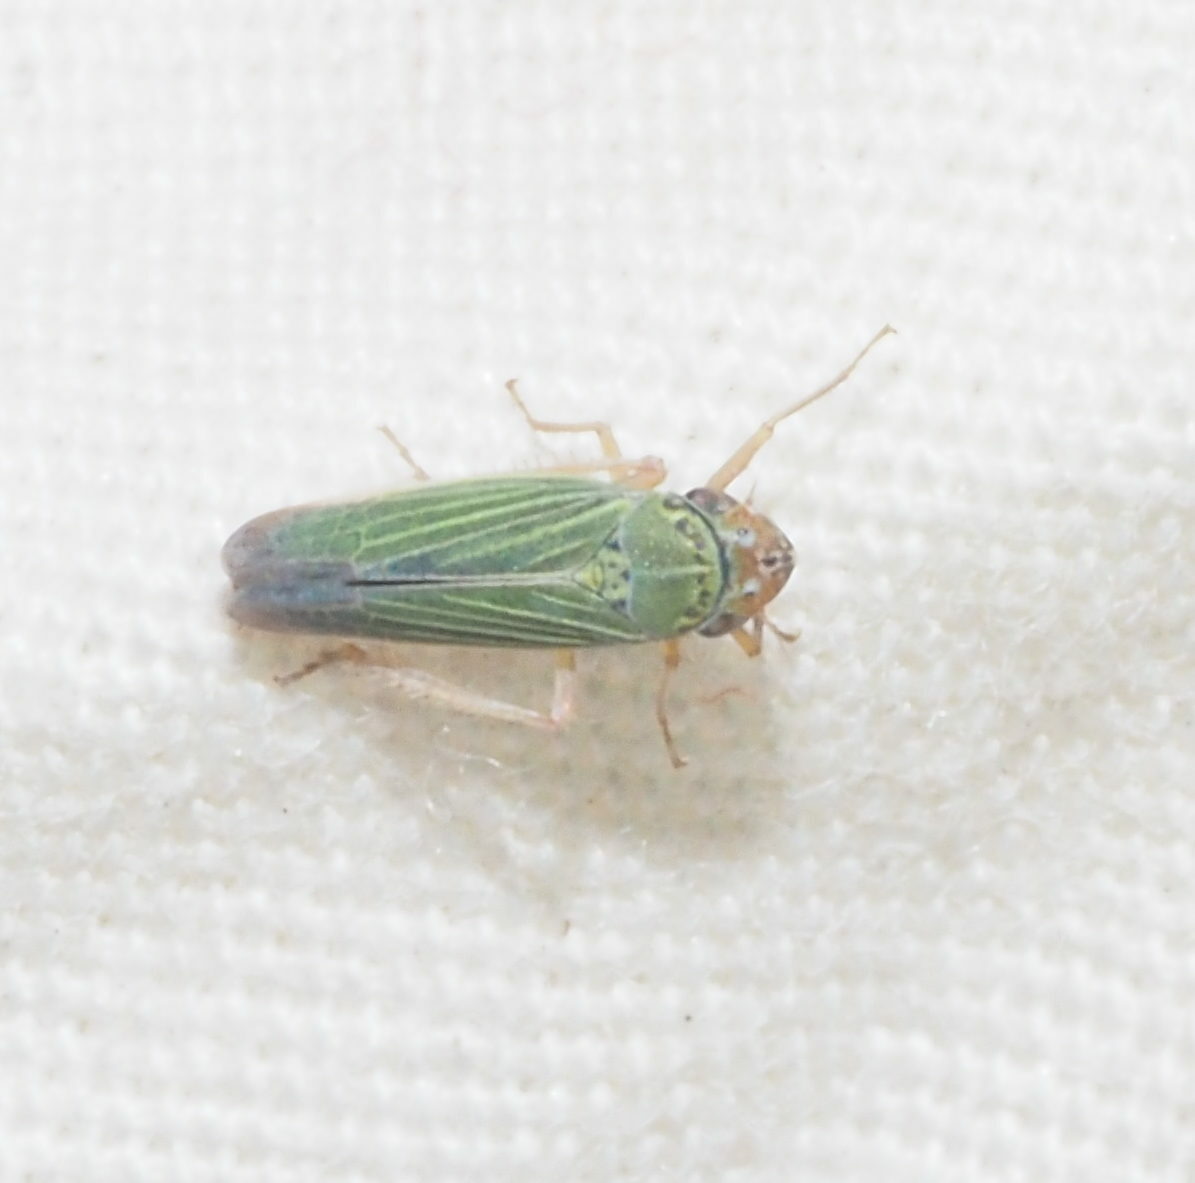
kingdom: Animalia
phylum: Arthropoda
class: Insecta
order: Hemiptera
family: Cicadellidae
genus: Xyphon
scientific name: Xyphon reticulatum
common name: Planthopper
